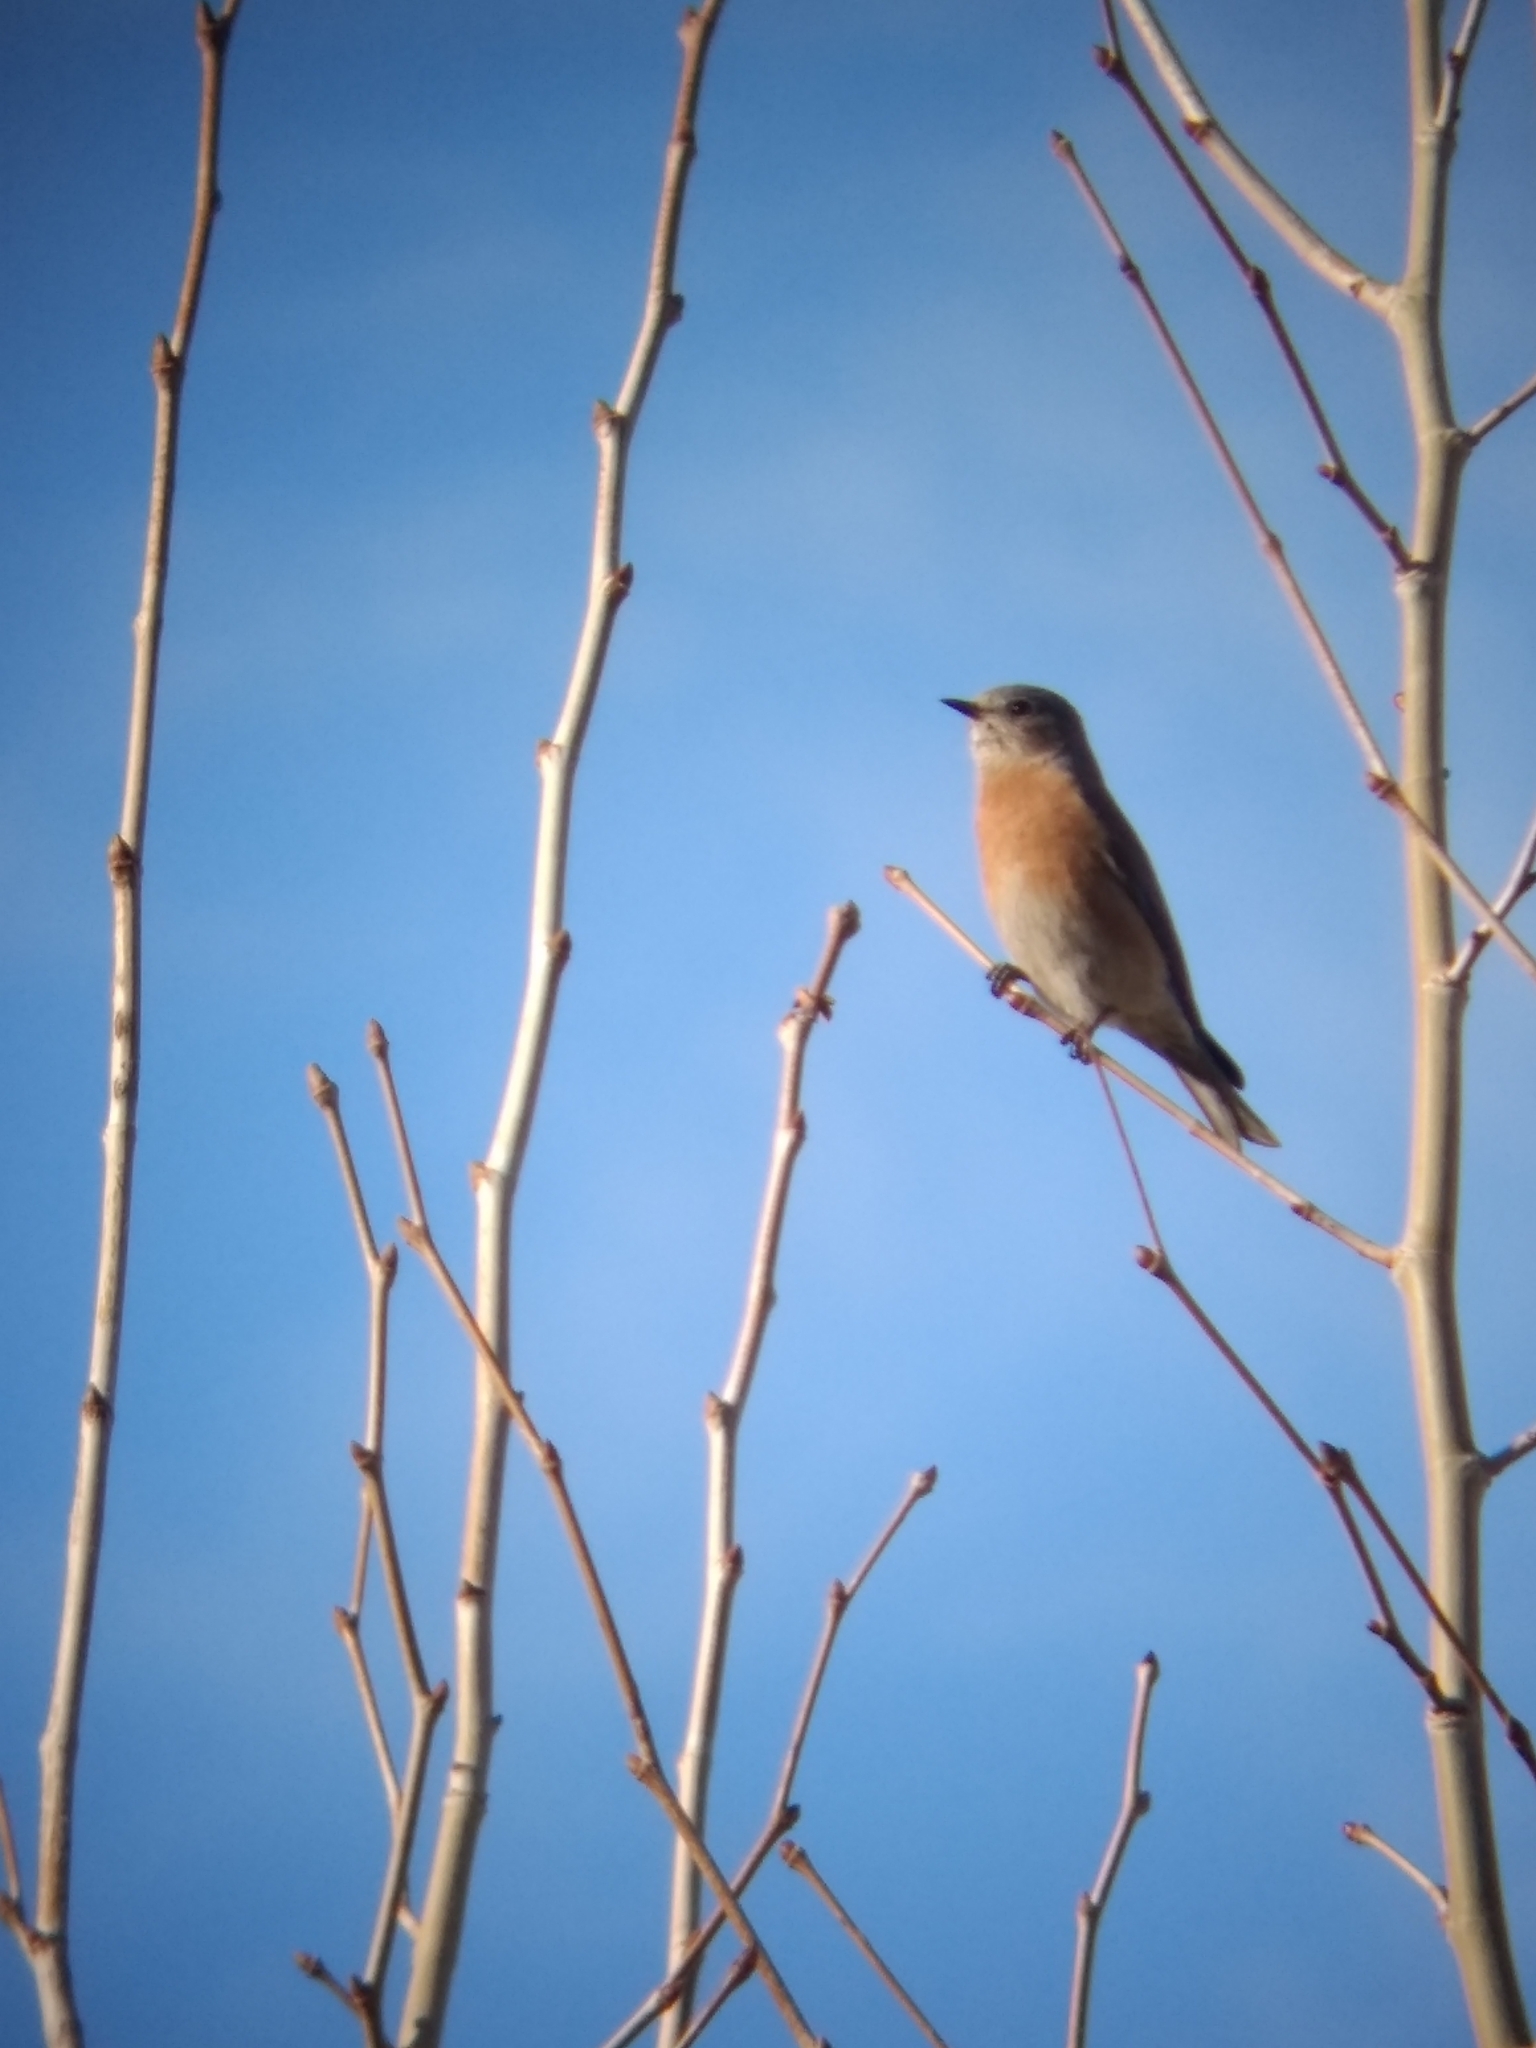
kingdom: Animalia
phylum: Chordata
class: Aves
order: Passeriformes
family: Turdidae
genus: Sialia
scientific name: Sialia mexicana
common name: Western bluebird
